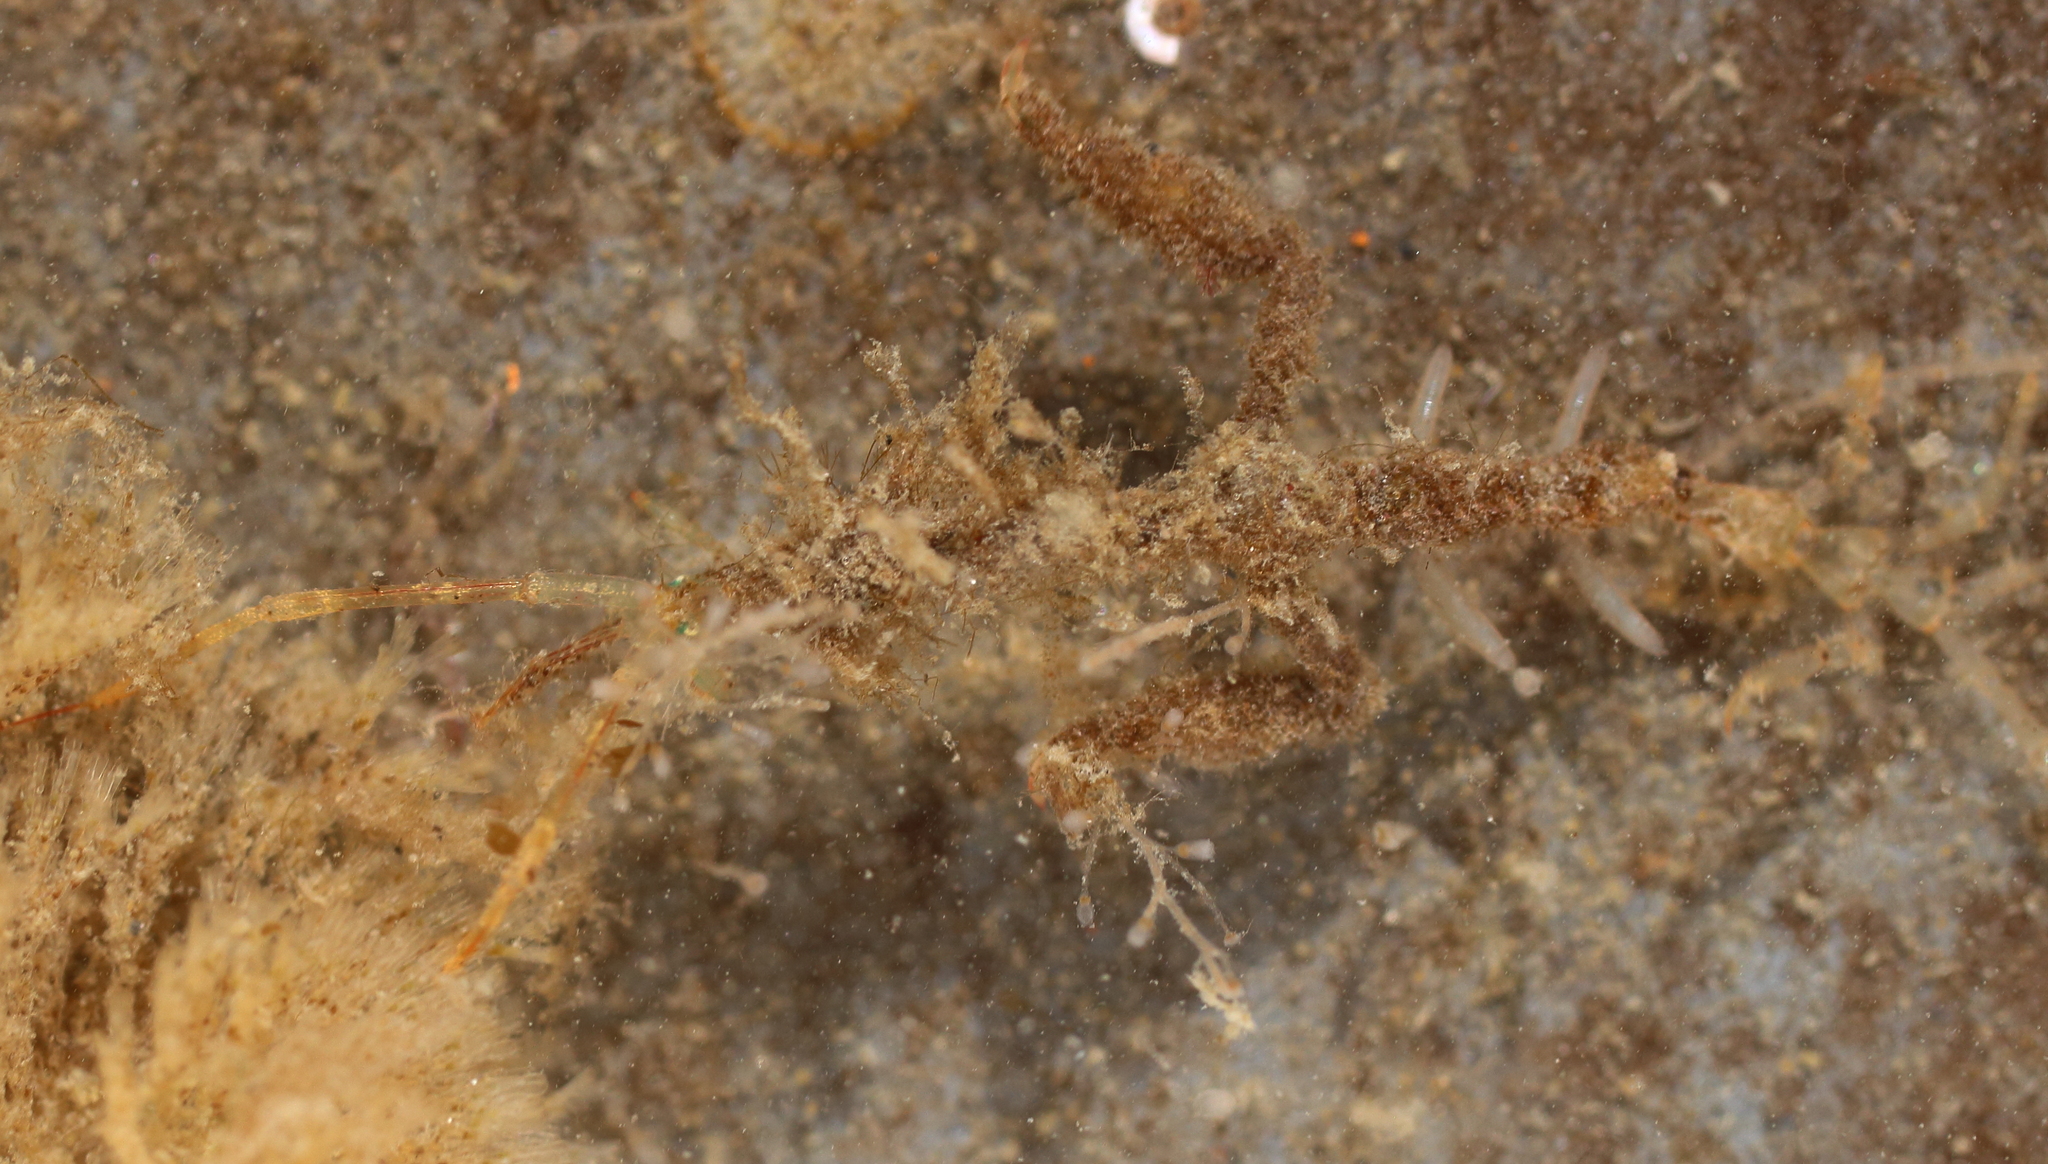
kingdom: Animalia
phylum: Arthropoda
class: Malacostraca
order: Amphipoda
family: Caprellidae
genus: Caprella
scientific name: Caprella alaskana
